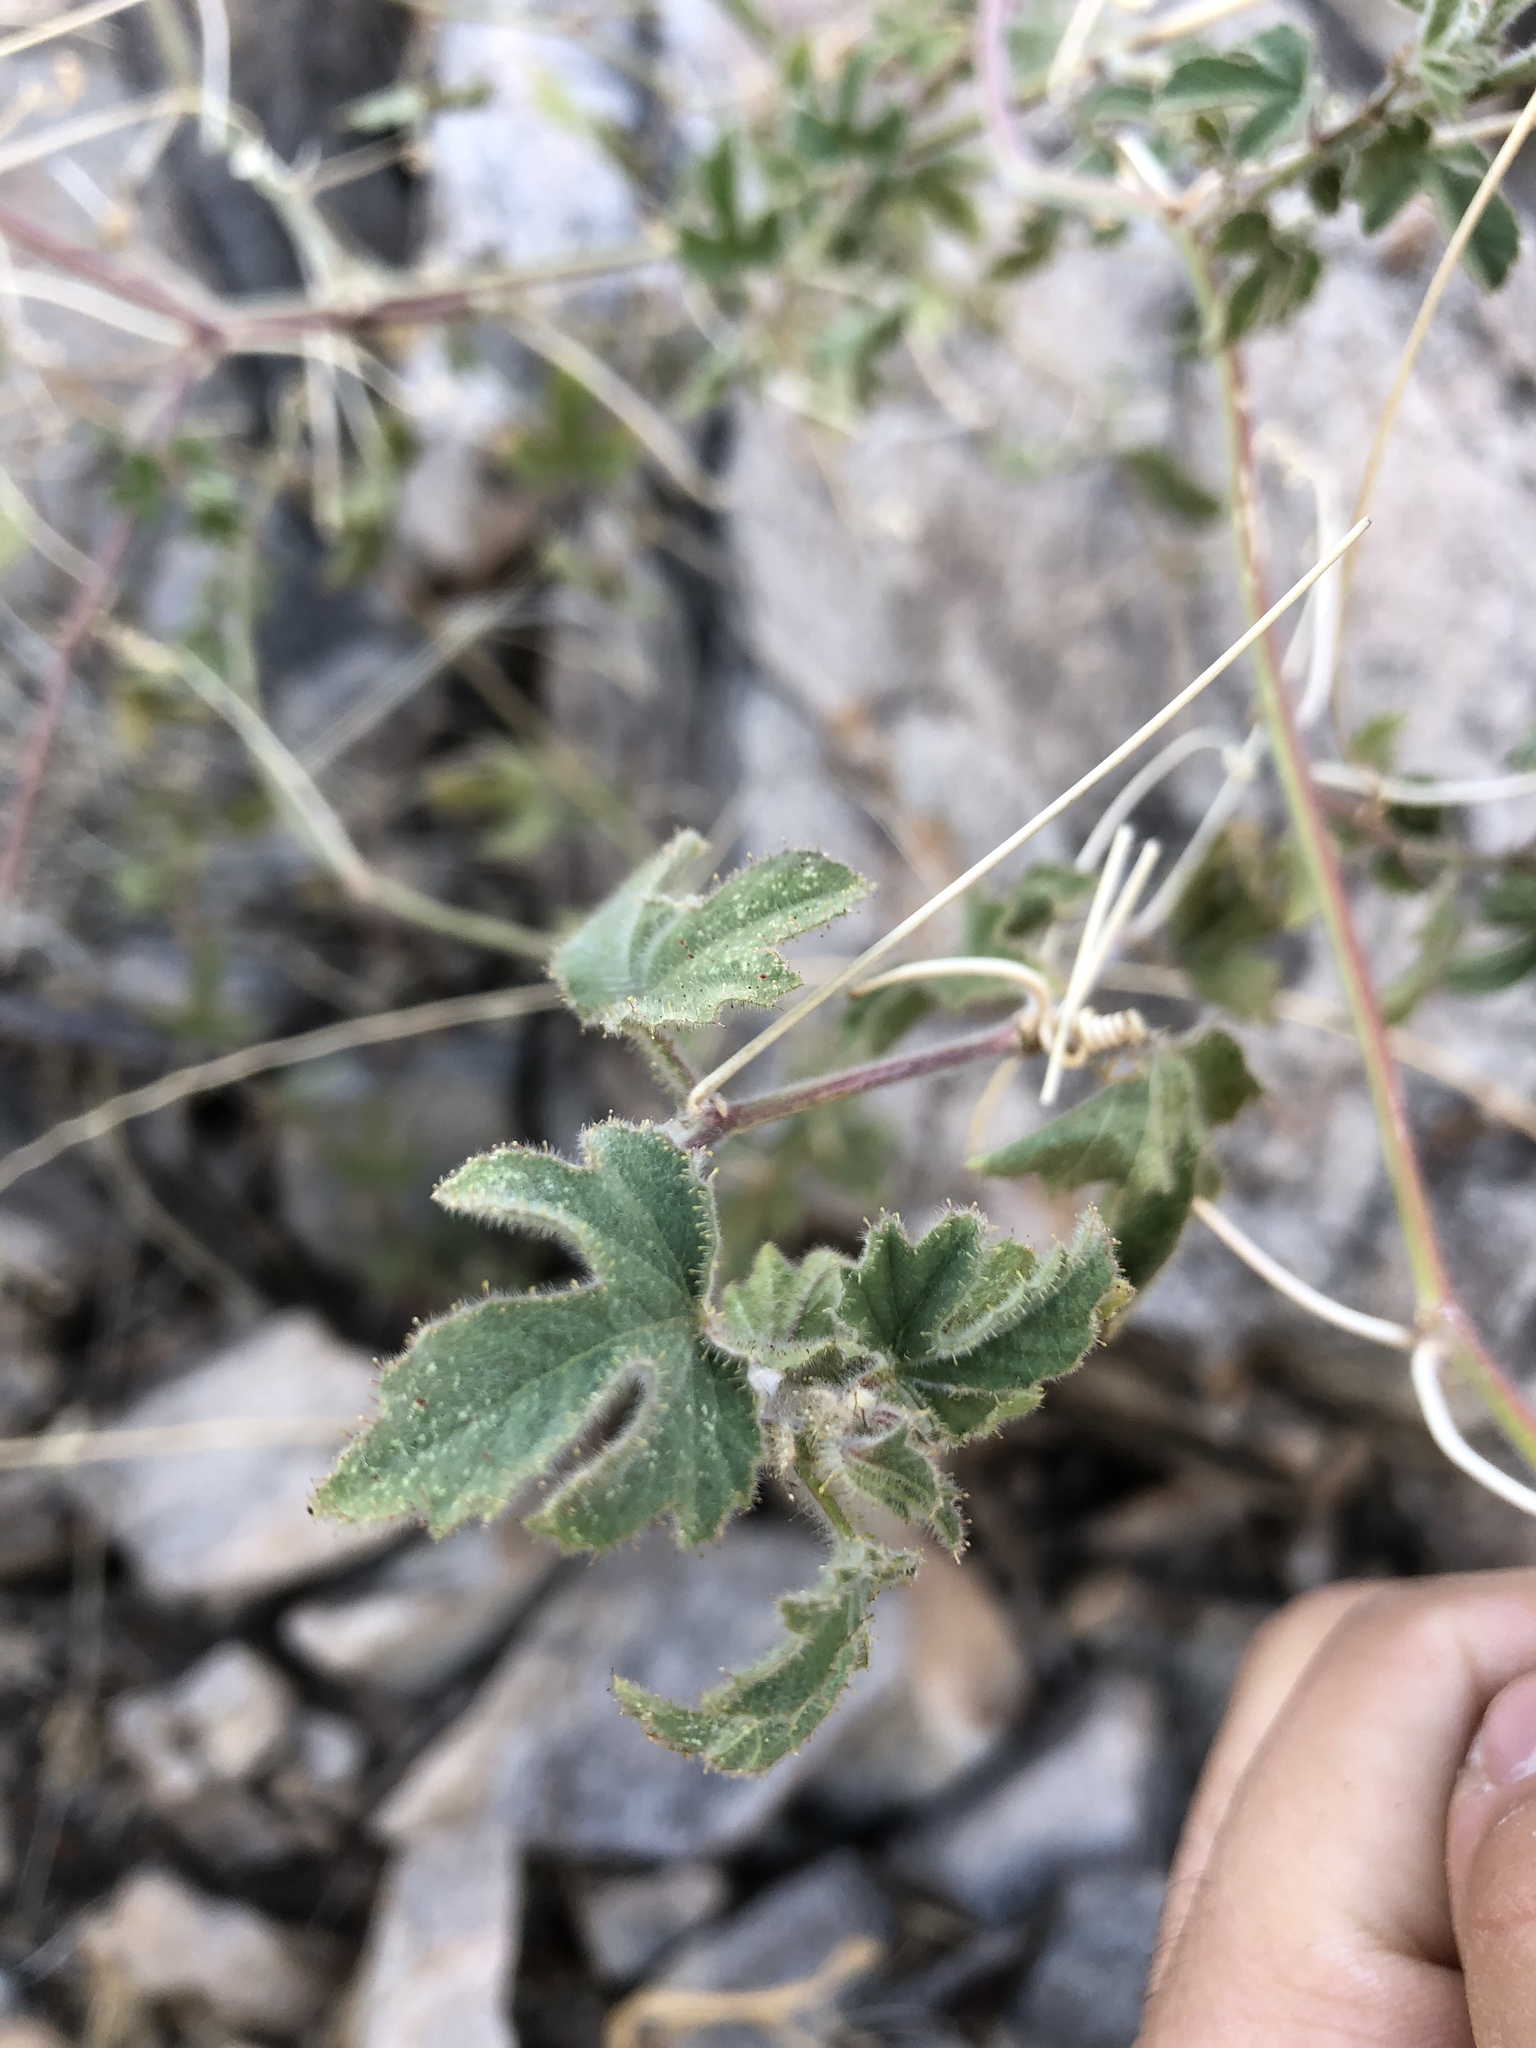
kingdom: Plantae
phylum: Tracheophyta
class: Magnoliopsida
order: Malpighiales
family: Passifloraceae
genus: Passiflora
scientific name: Passiflora arizonica
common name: Arizona passionflower
